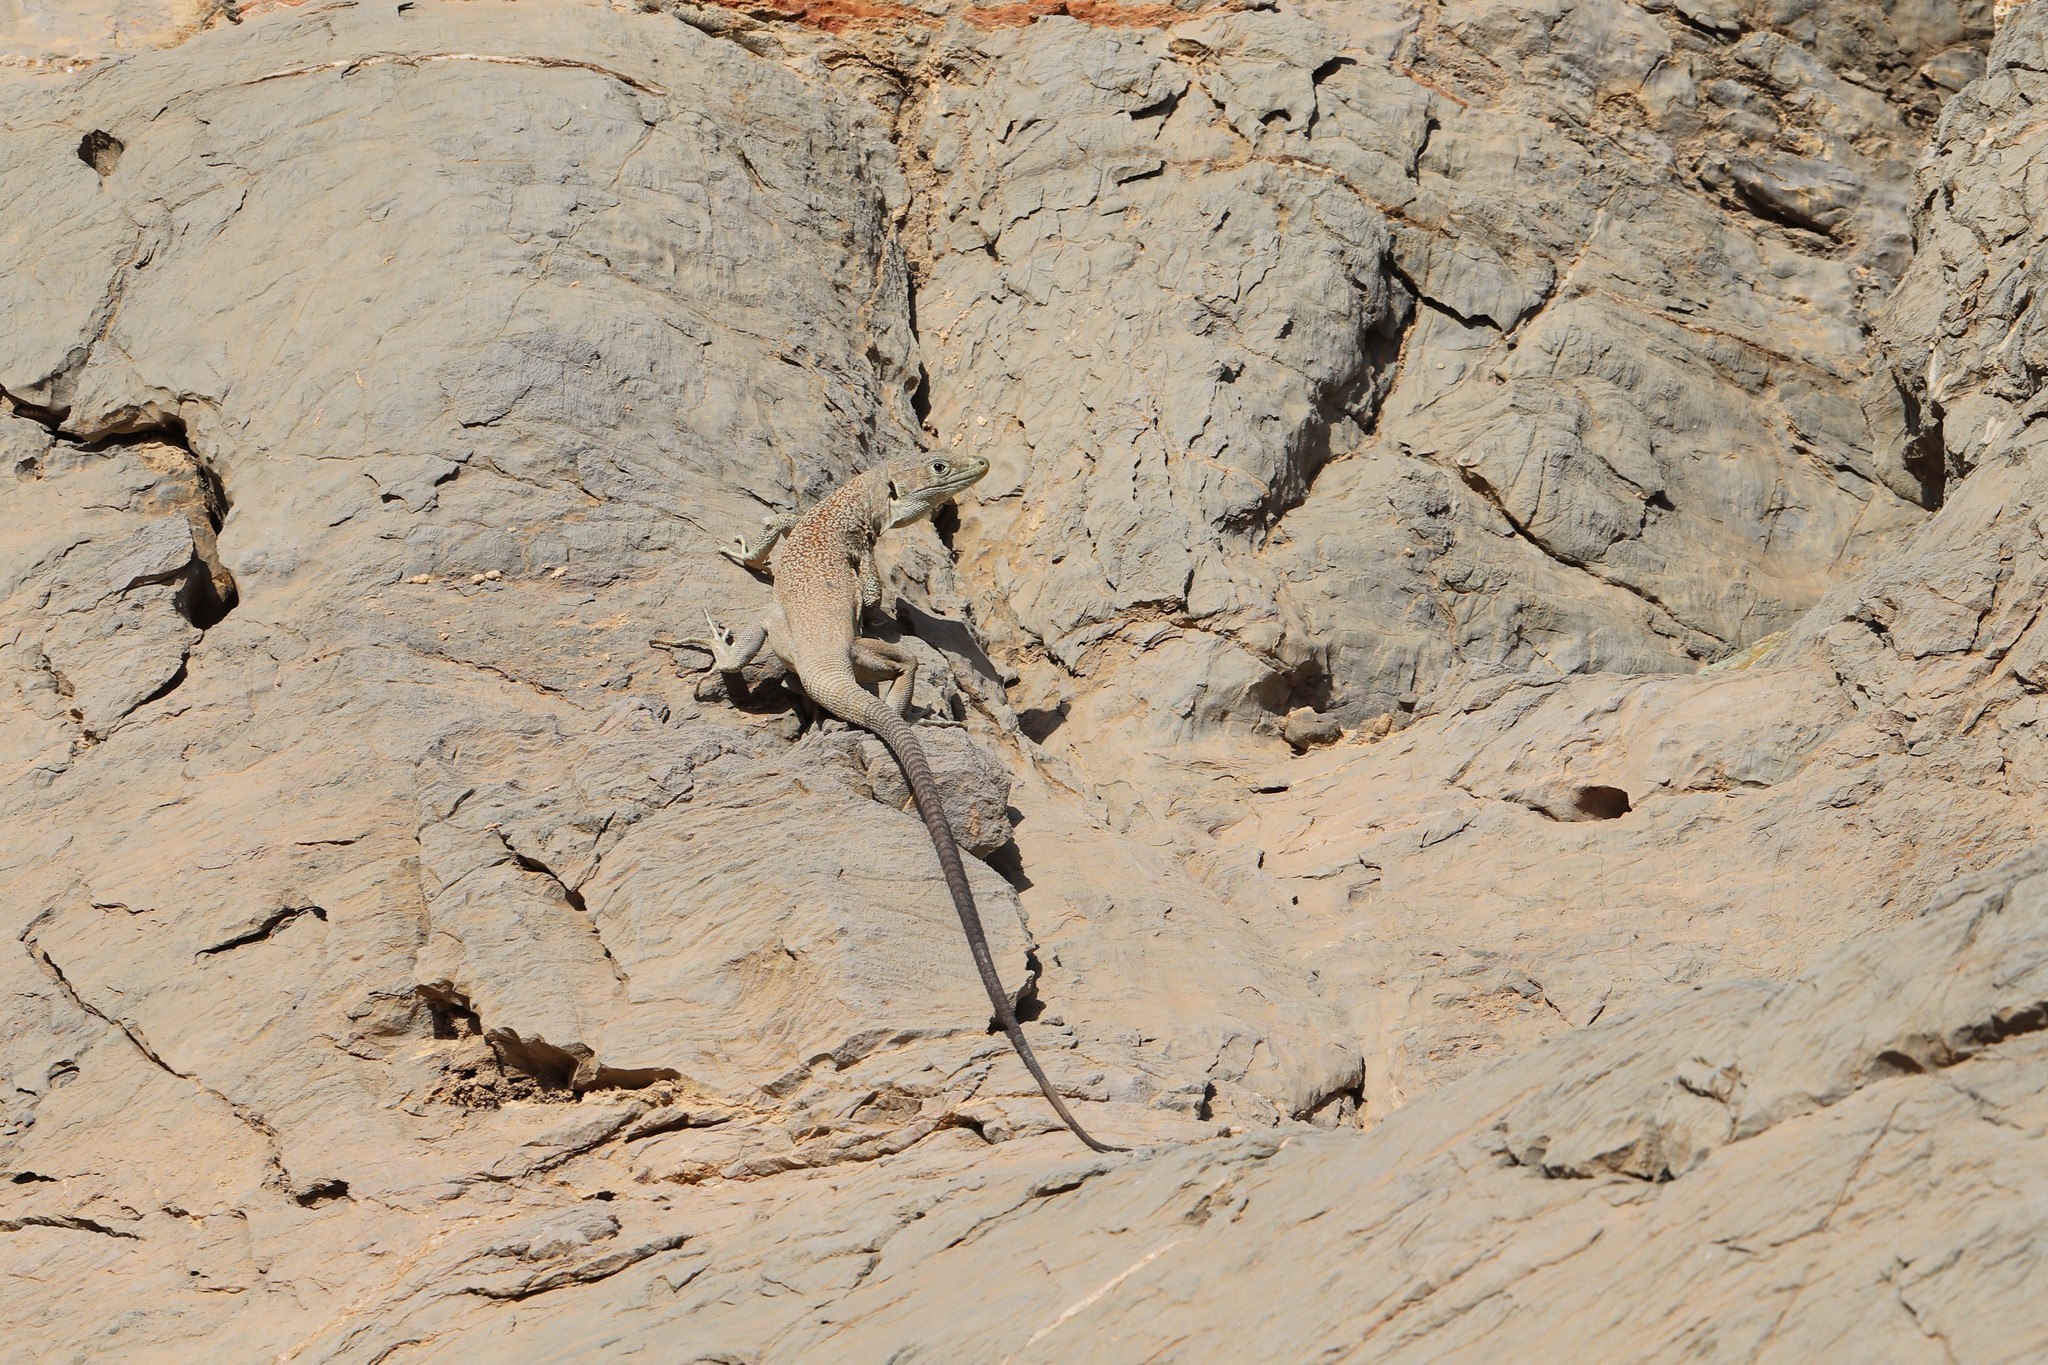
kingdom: Animalia
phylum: Chordata
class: Squamata
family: Lacertidae
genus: Omanosaura
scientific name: Omanosaura jayakari
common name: Jayakar lizard
